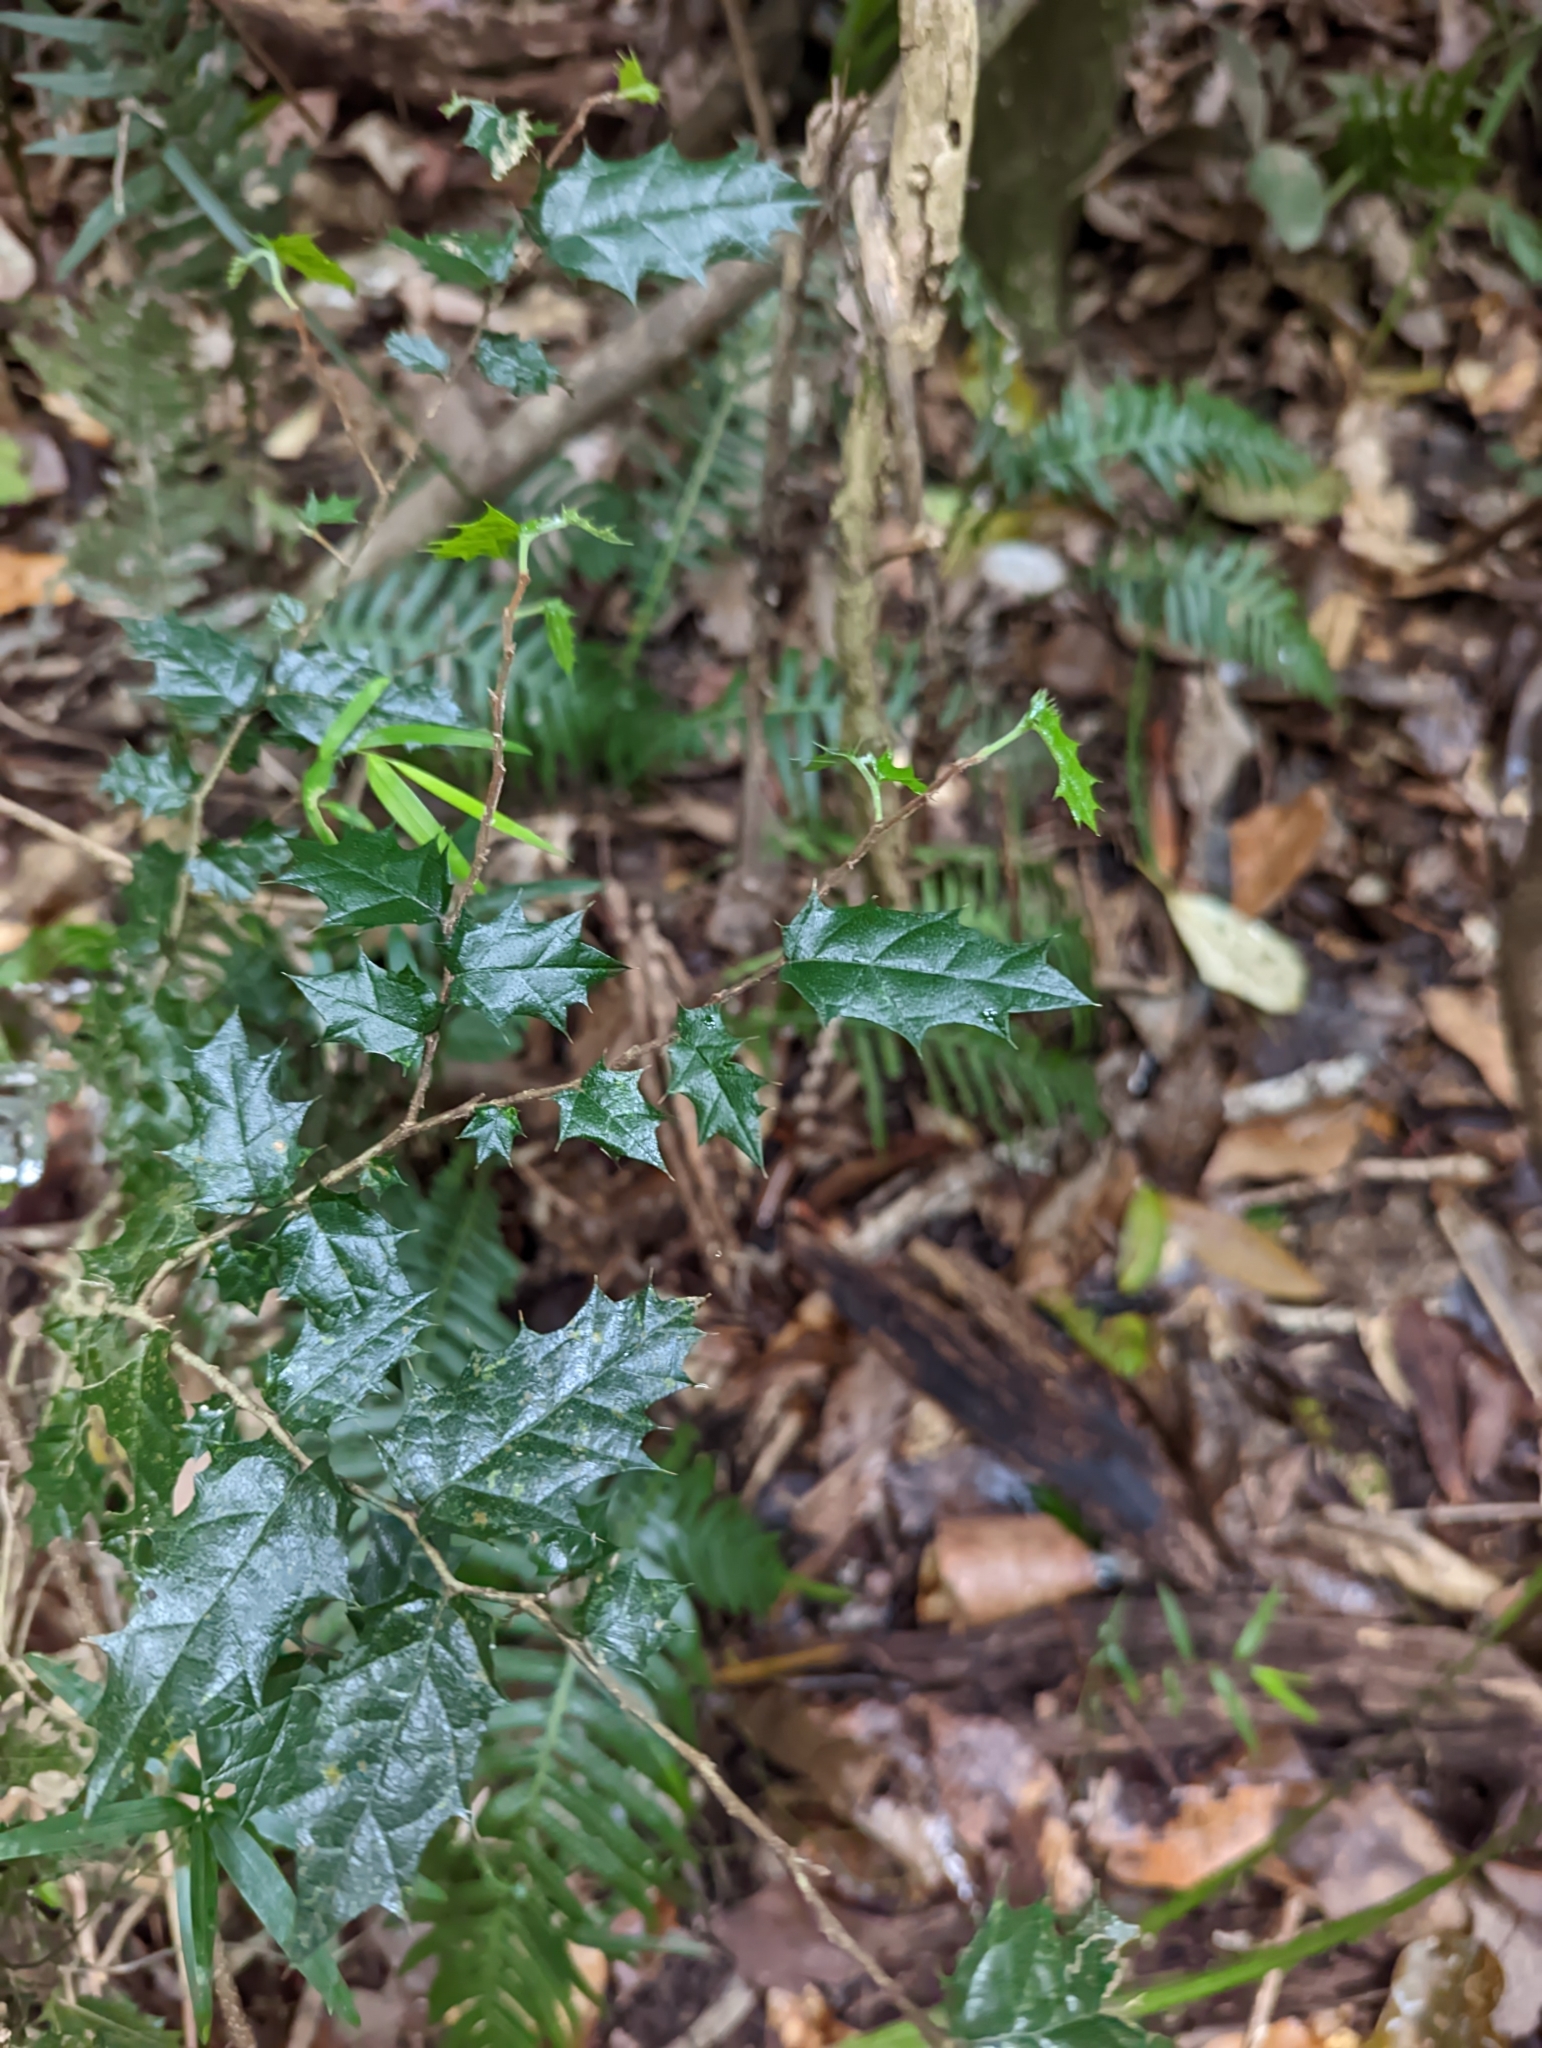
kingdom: Plantae
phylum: Tracheophyta
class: Magnoliopsida
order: Rosales
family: Cannabaceae
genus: Aphananthe
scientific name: Aphananthe philippinensis
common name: Wild holly
